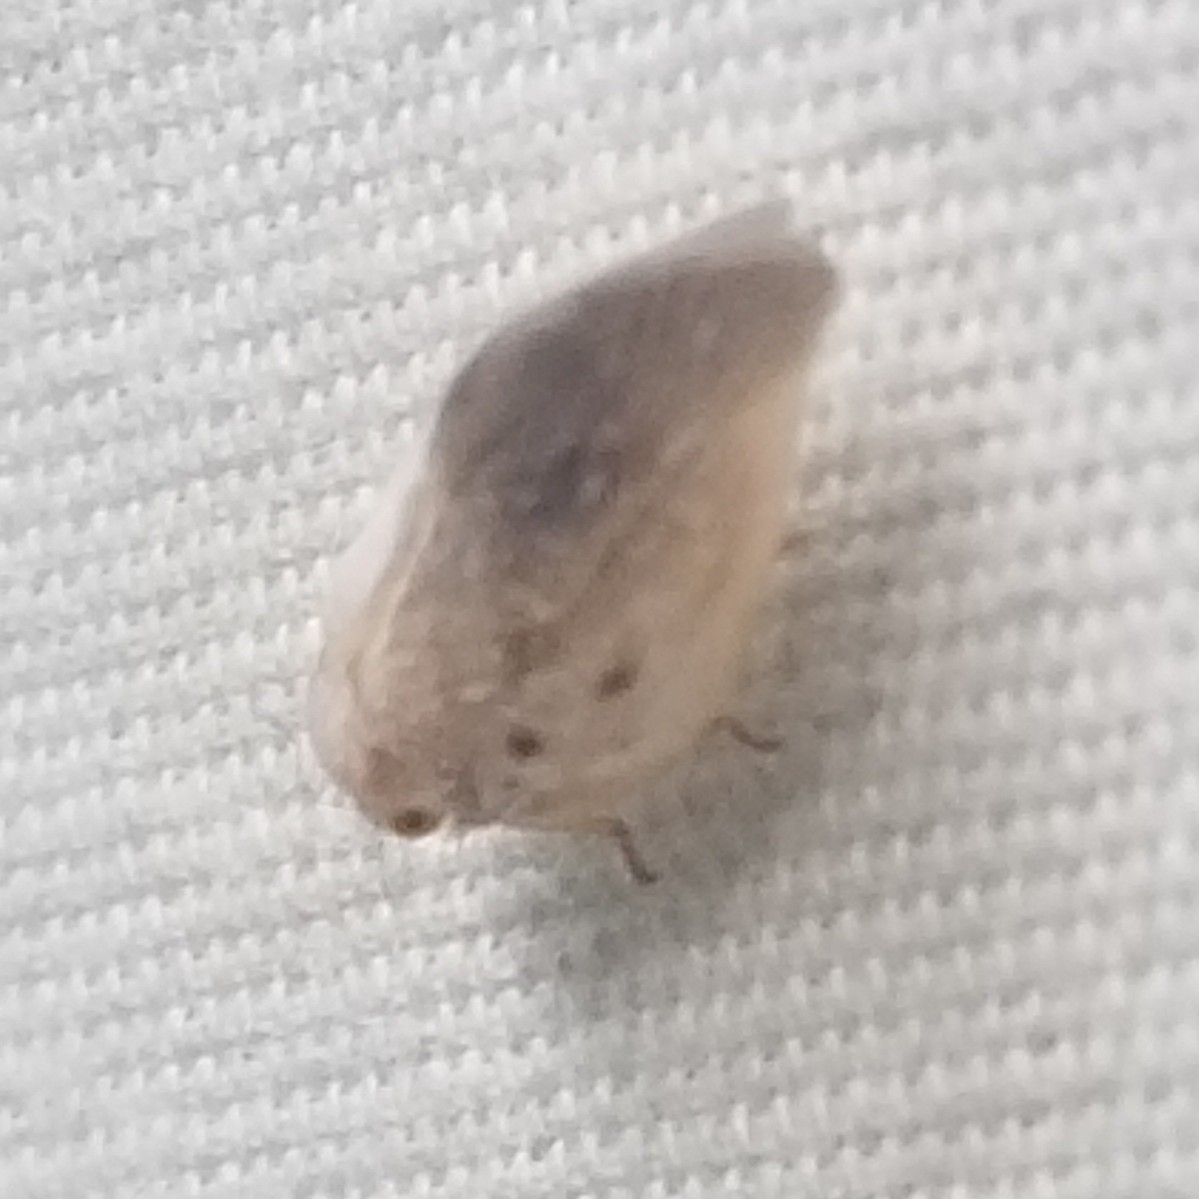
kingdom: Animalia
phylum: Arthropoda
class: Insecta
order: Hemiptera
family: Flatidae
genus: Metcalfa
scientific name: Metcalfa pruinosa
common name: Citrus flatid planthopper
